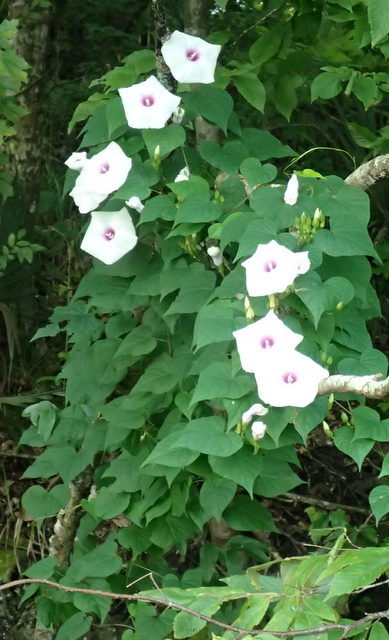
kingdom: Plantae
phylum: Tracheophyta
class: Magnoliopsida
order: Solanales
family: Convolvulaceae
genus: Ipomoea
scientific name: Ipomoea pandurata
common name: Man-of-the-earth
